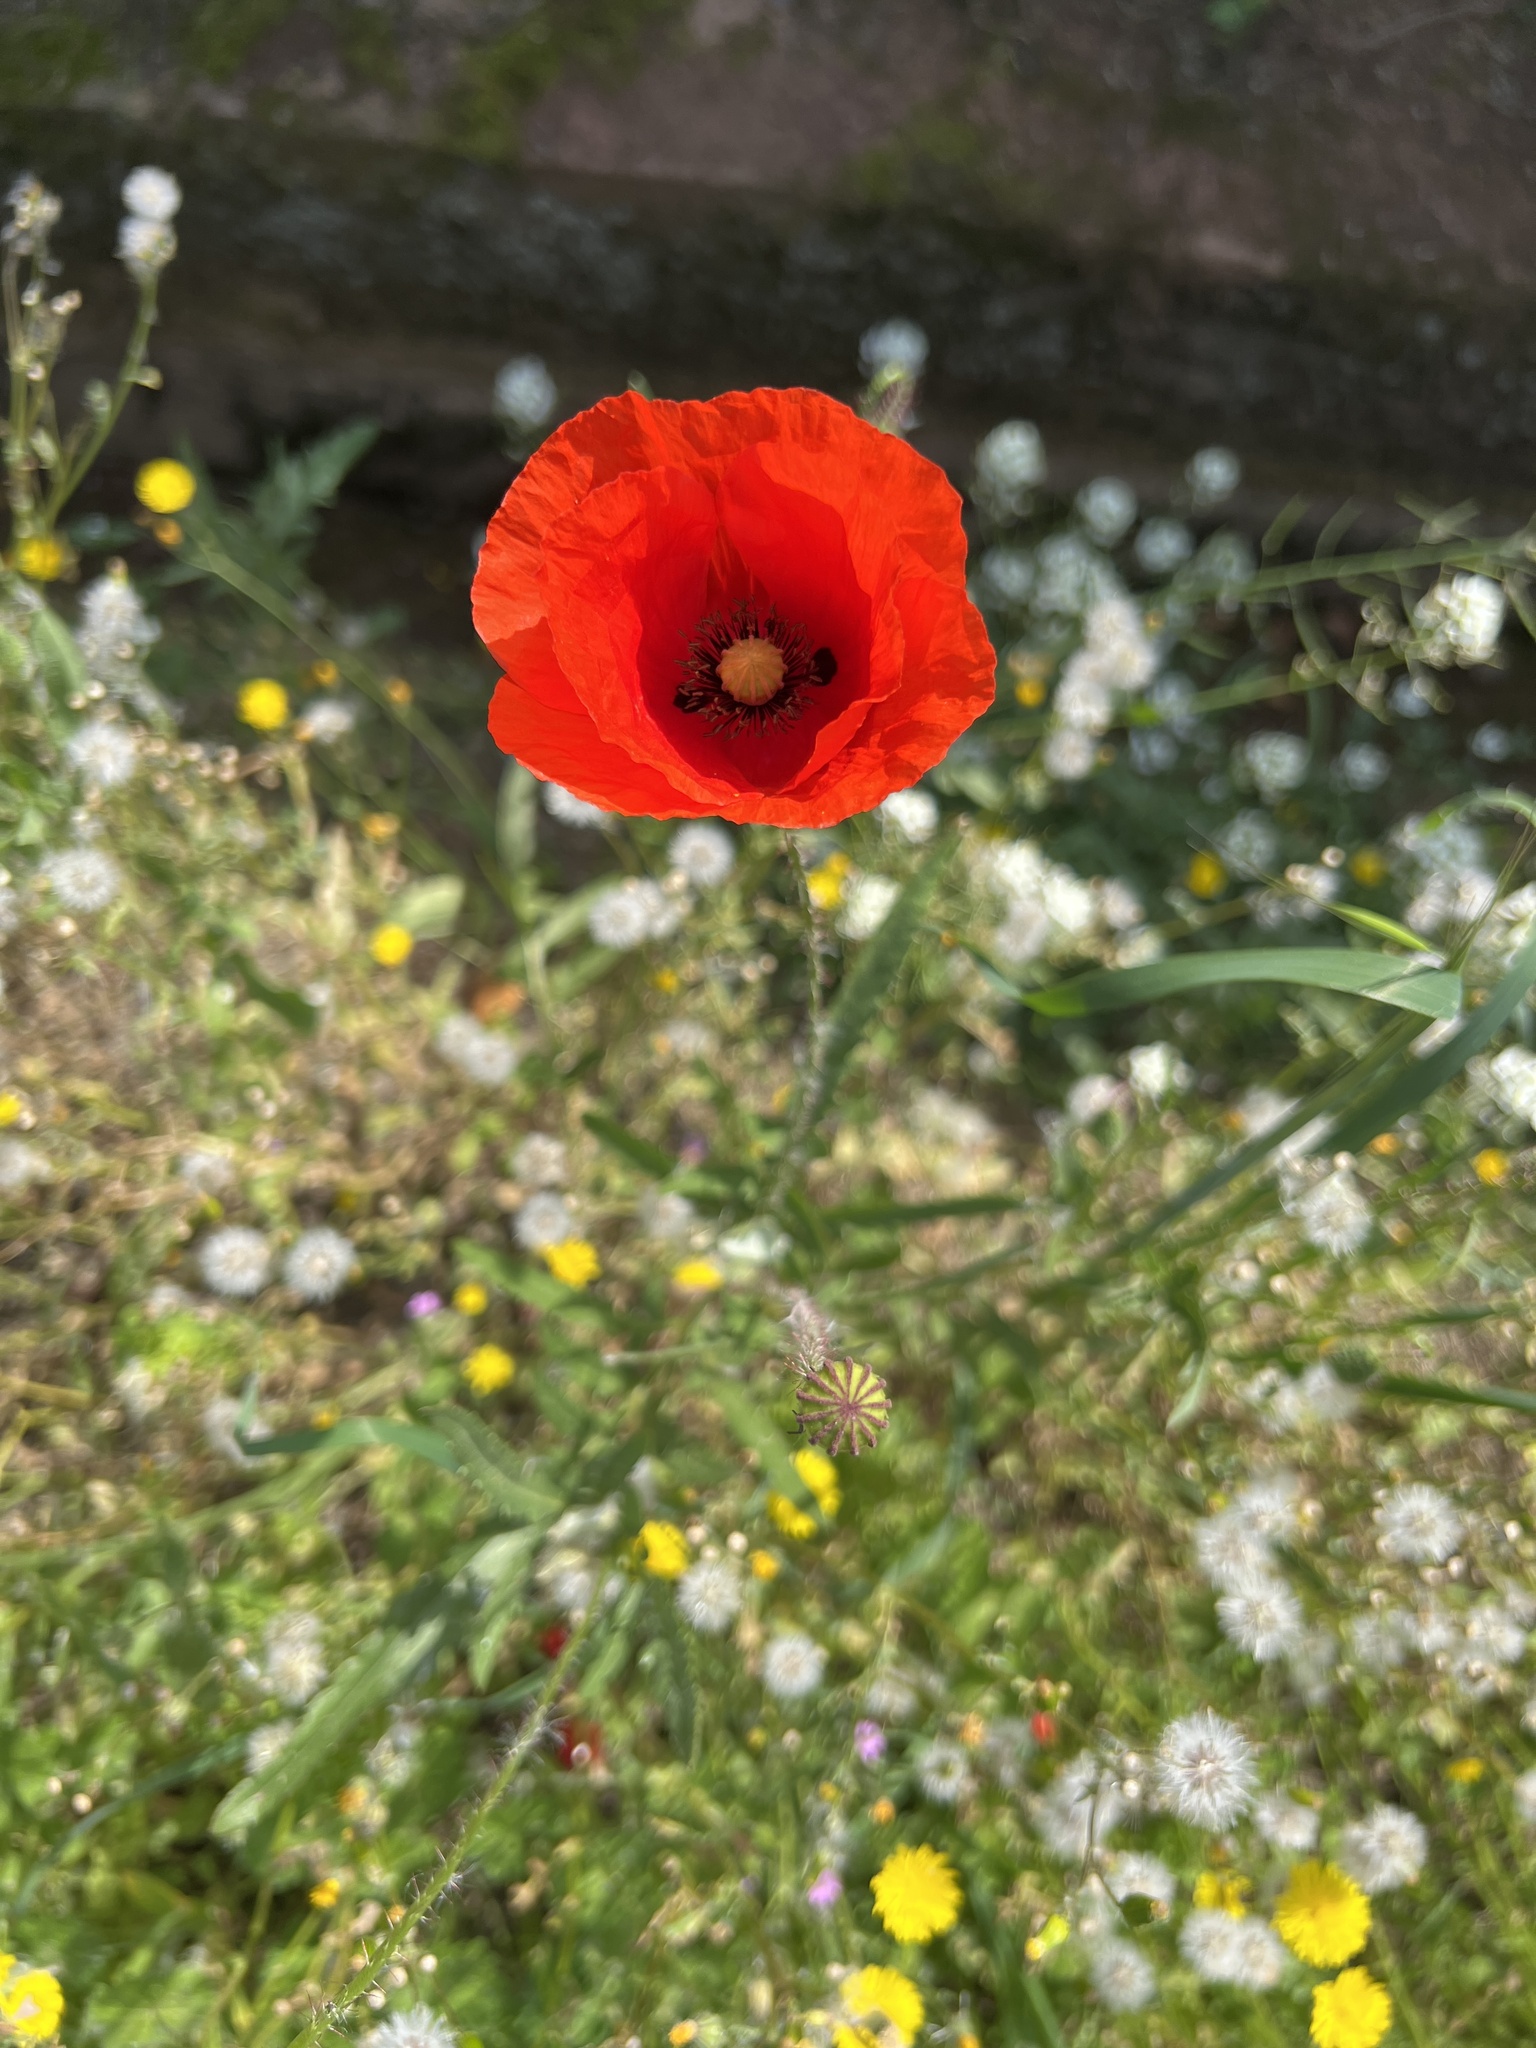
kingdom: Plantae
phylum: Tracheophyta
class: Magnoliopsida
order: Ranunculales
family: Papaveraceae
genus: Papaver
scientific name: Papaver rhoeas
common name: Corn poppy
